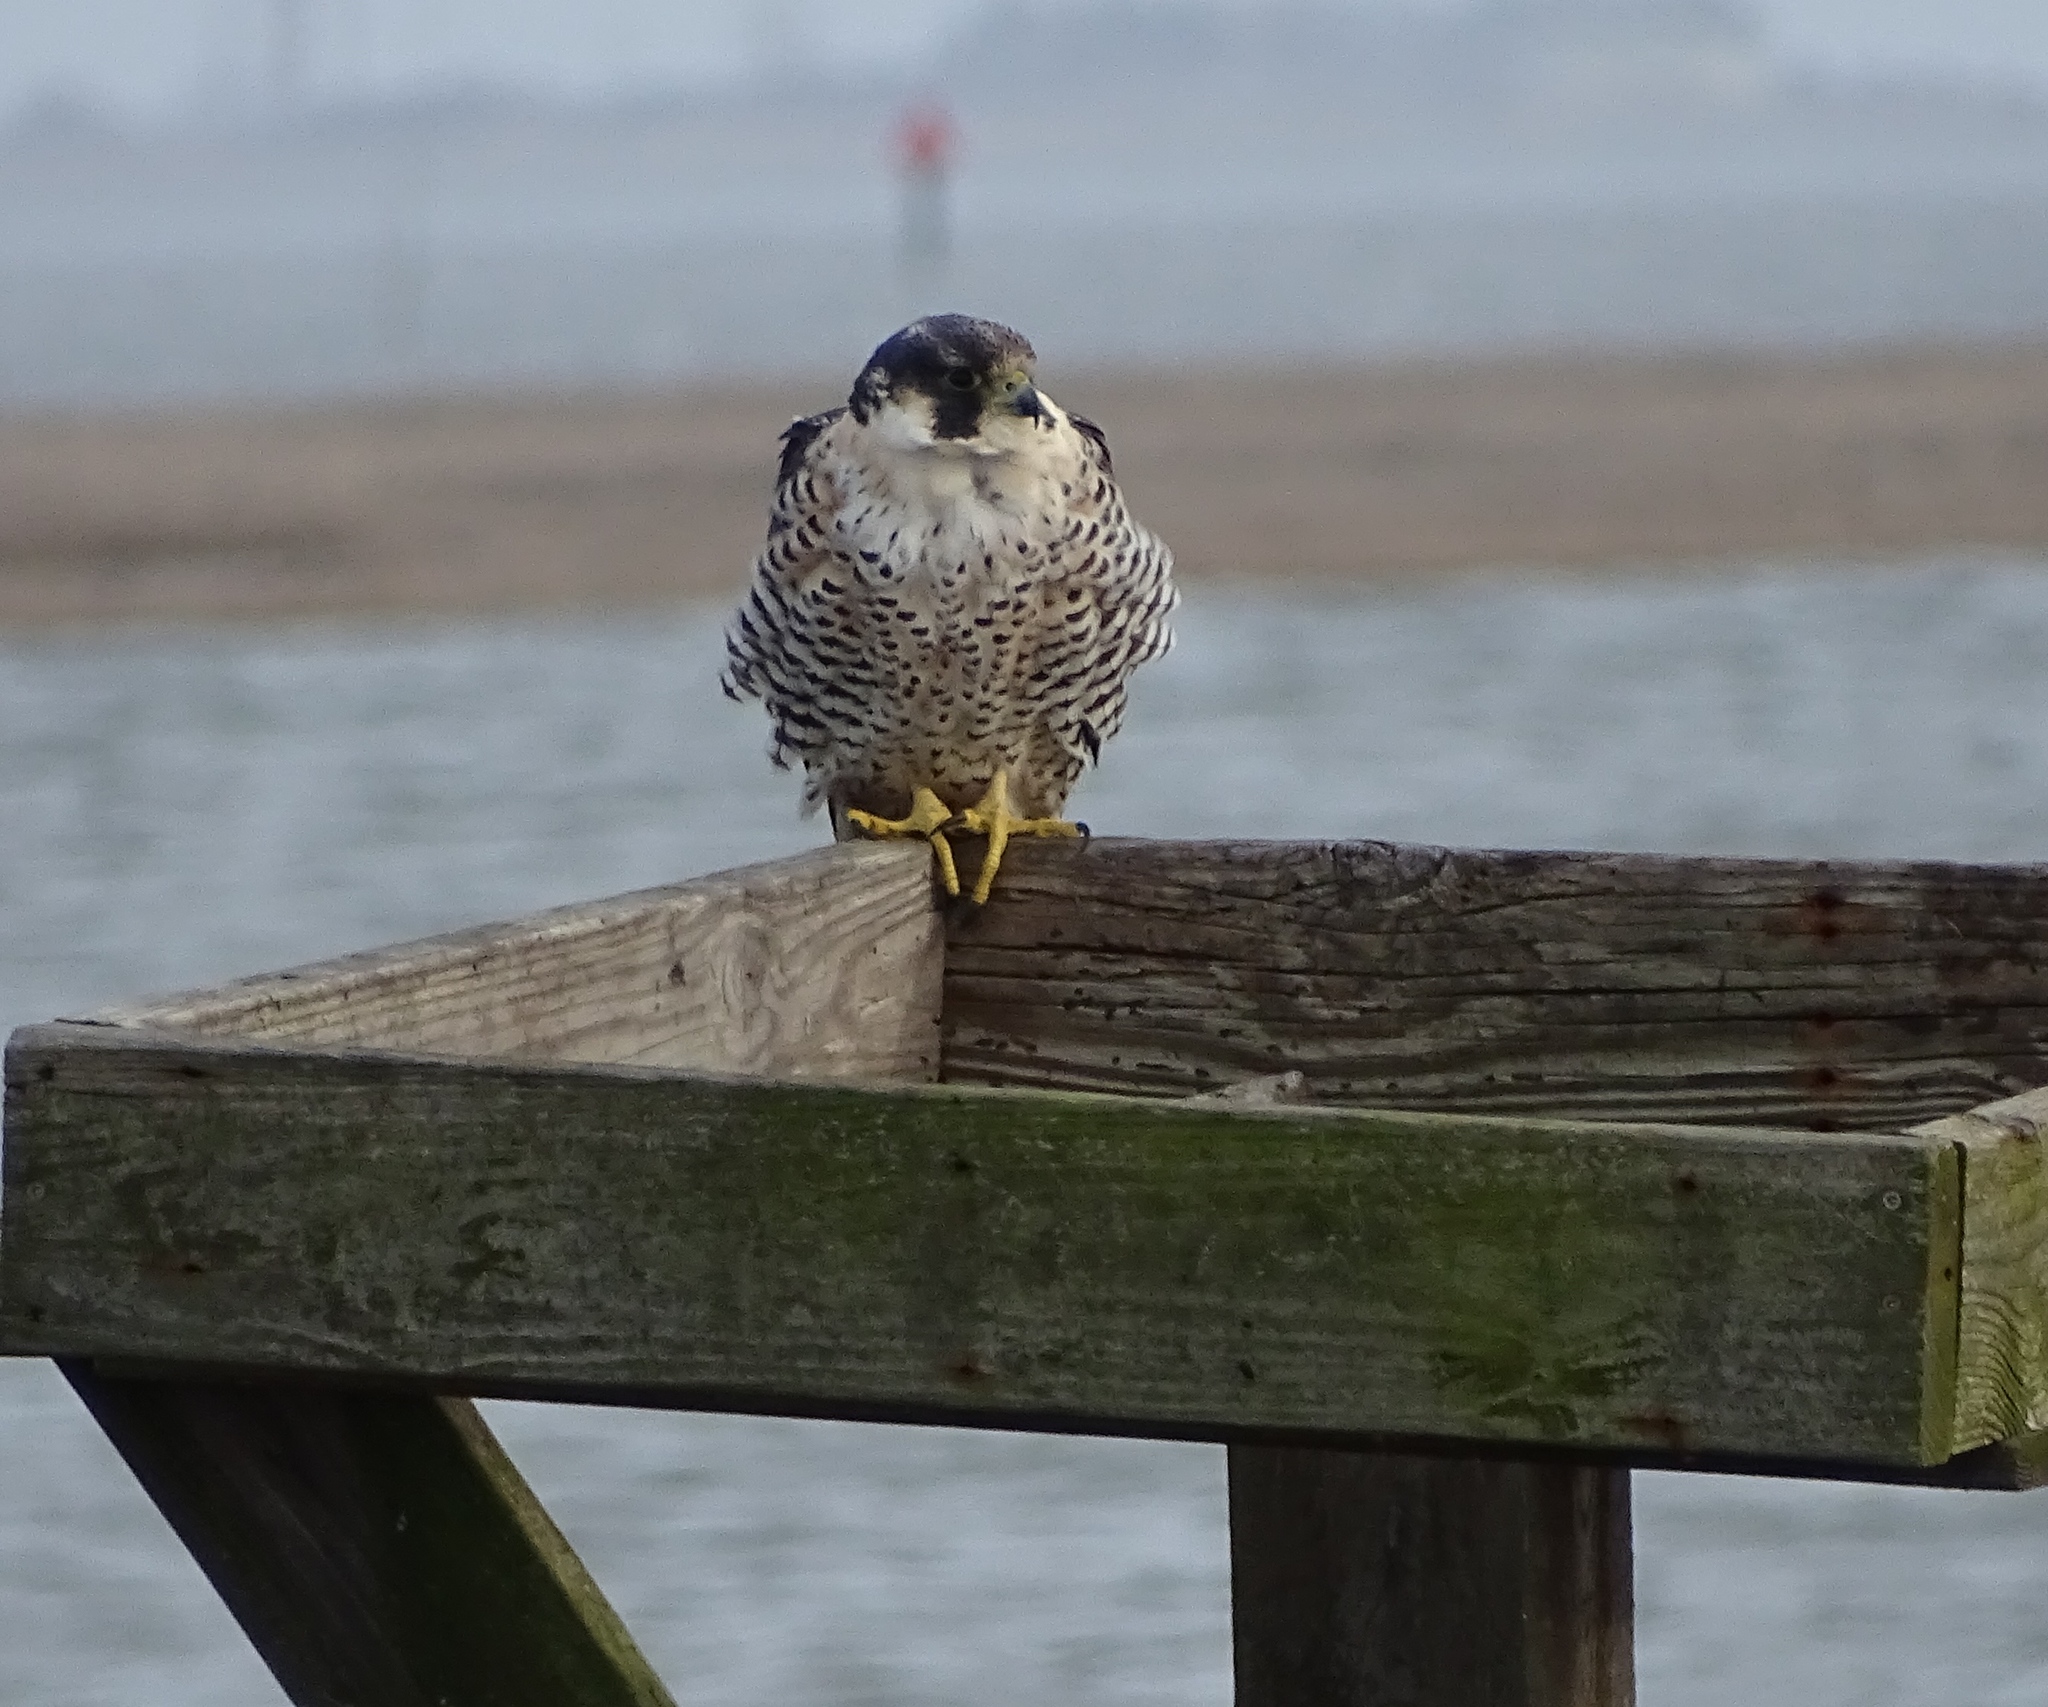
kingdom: Animalia
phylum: Chordata
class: Aves
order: Falconiformes
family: Falconidae
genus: Falco
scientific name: Falco peregrinus
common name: Peregrine falcon
